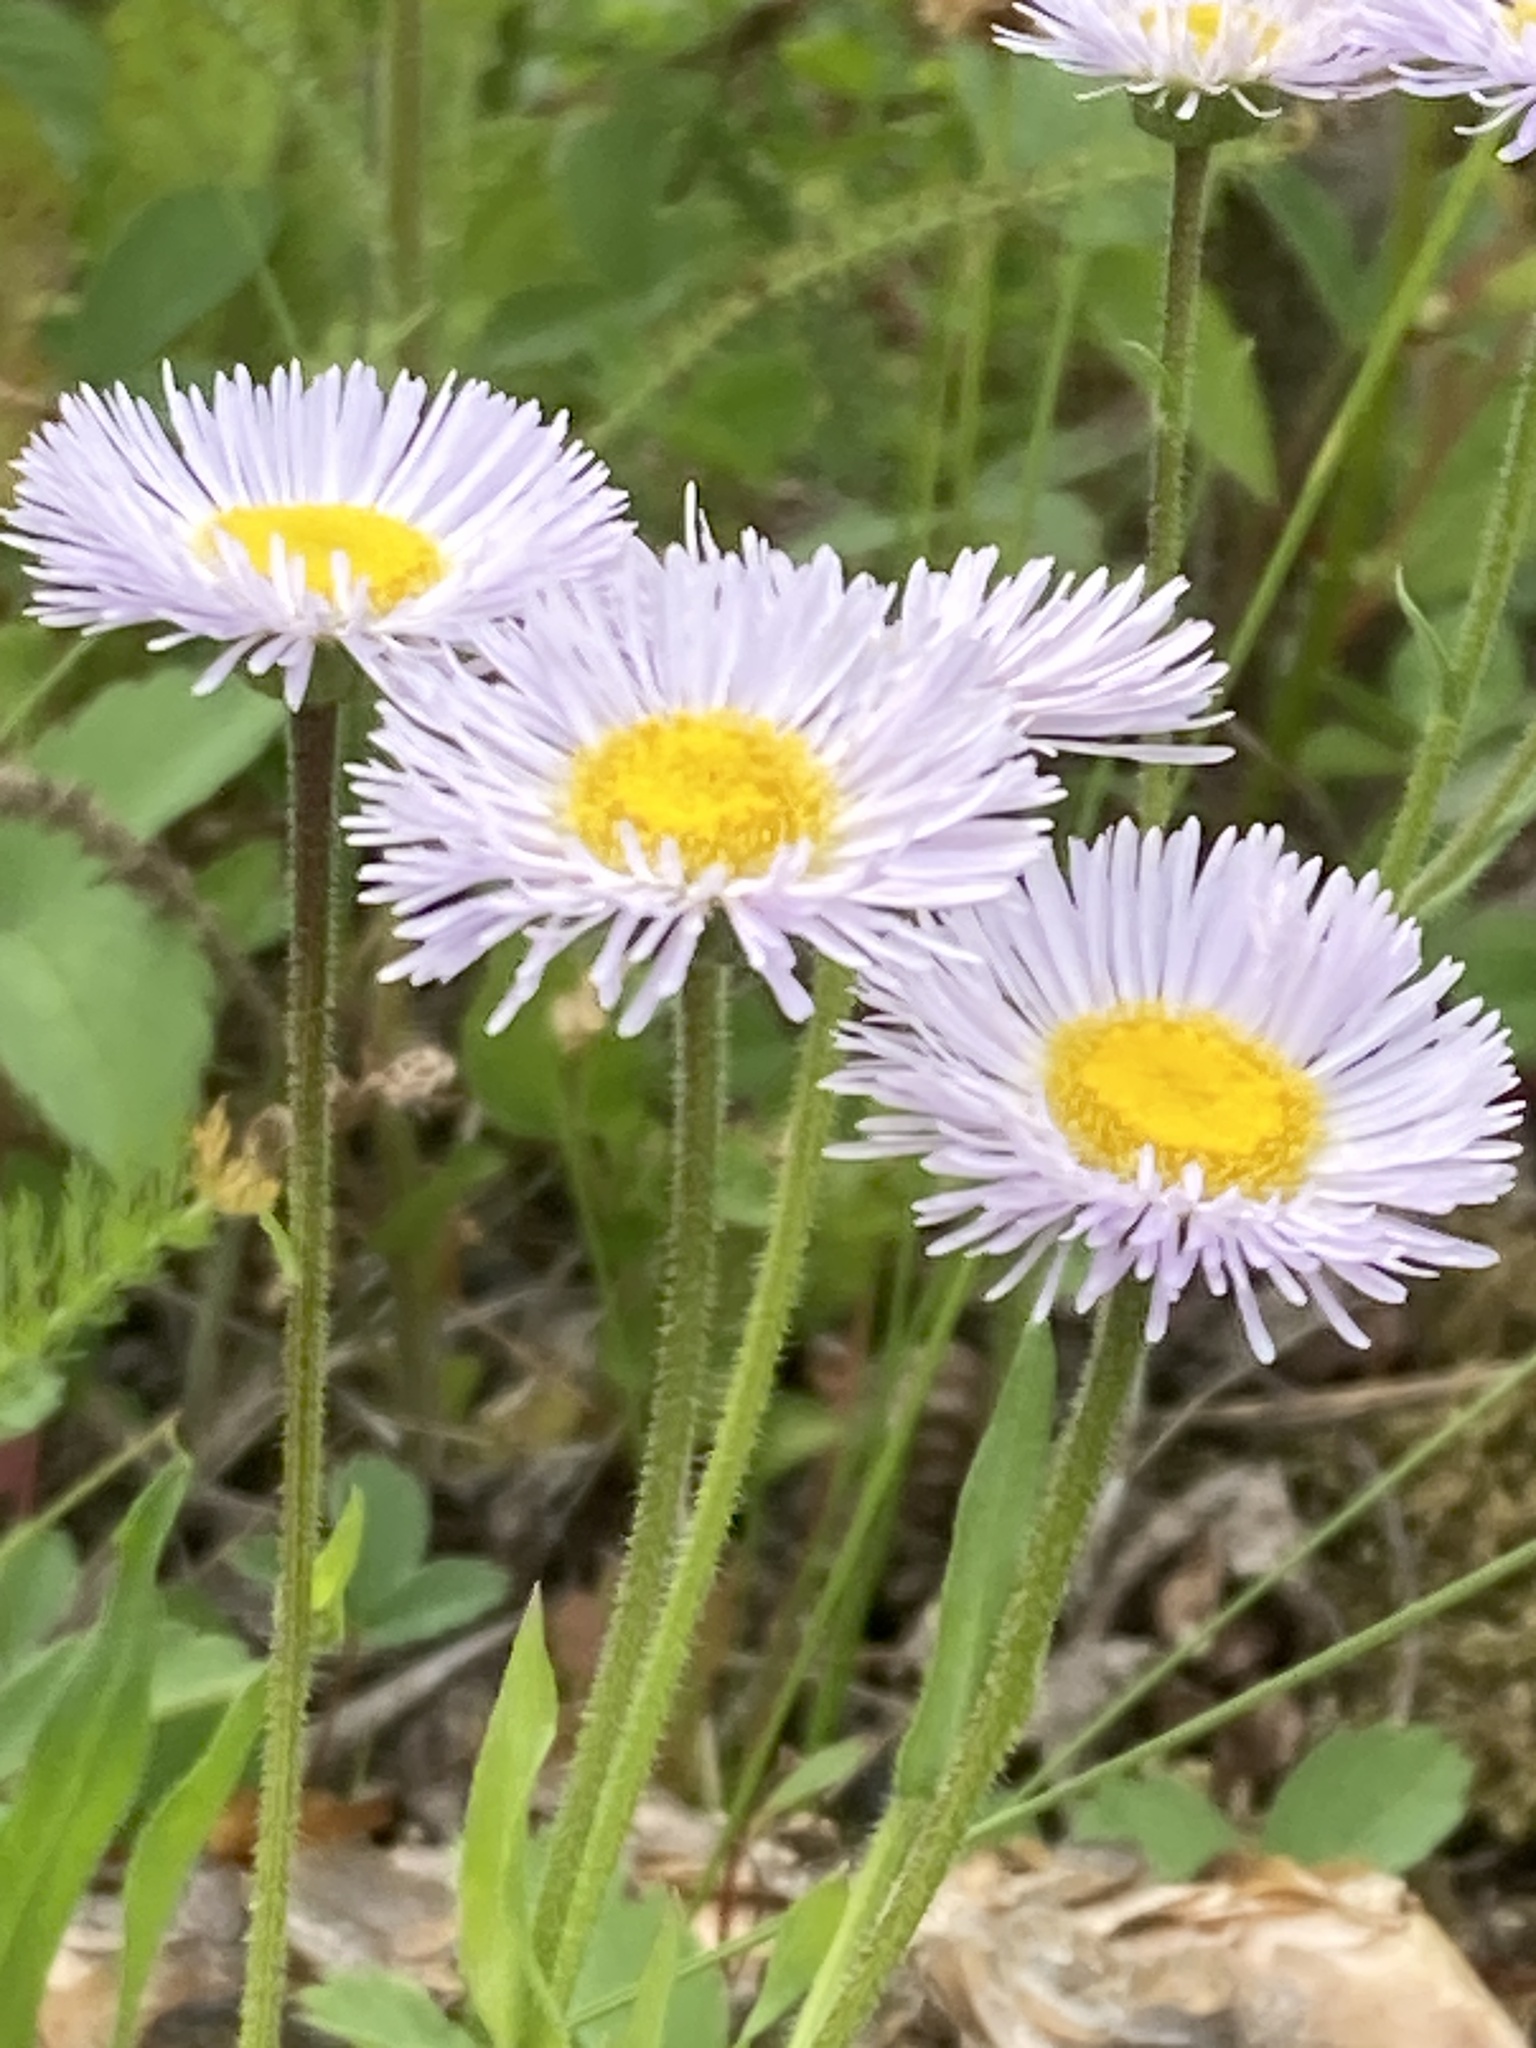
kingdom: Plantae
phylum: Tracheophyta
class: Magnoliopsida
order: Asterales
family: Asteraceae
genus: Erigeron
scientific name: Erigeron philadelphicus
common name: Robin's-plantain
